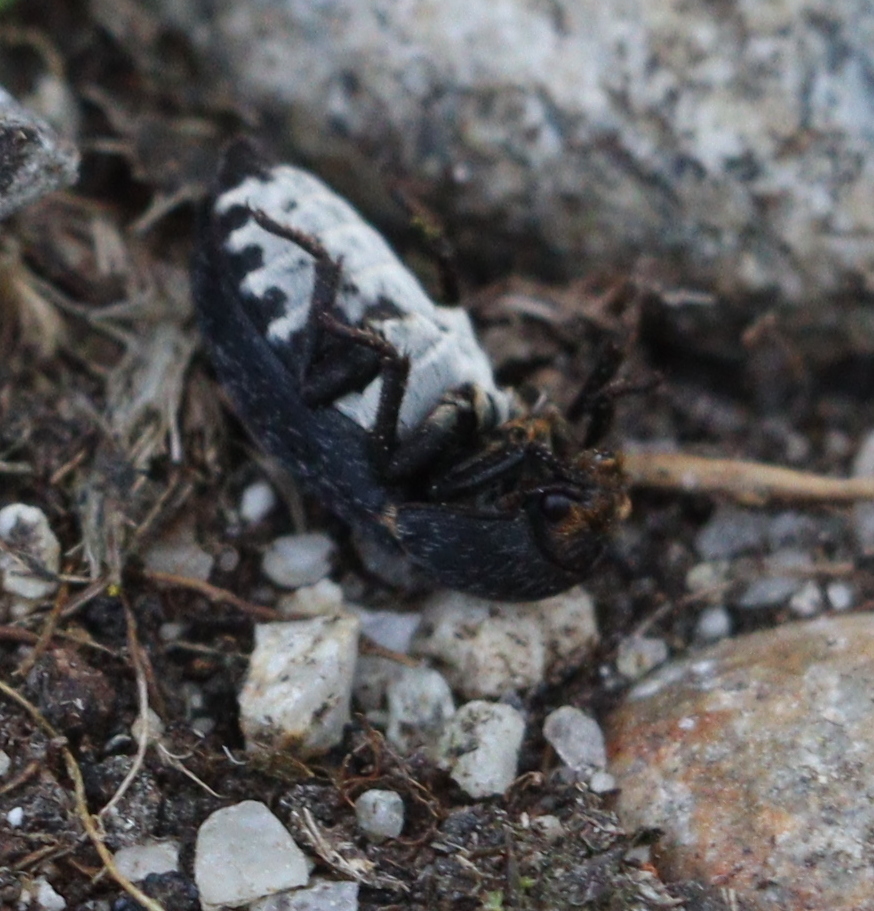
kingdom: Animalia
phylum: Arthropoda
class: Insecta
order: Coleoptera
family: Dermestidae
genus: Dermestes
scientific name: Dermestes laniarius
